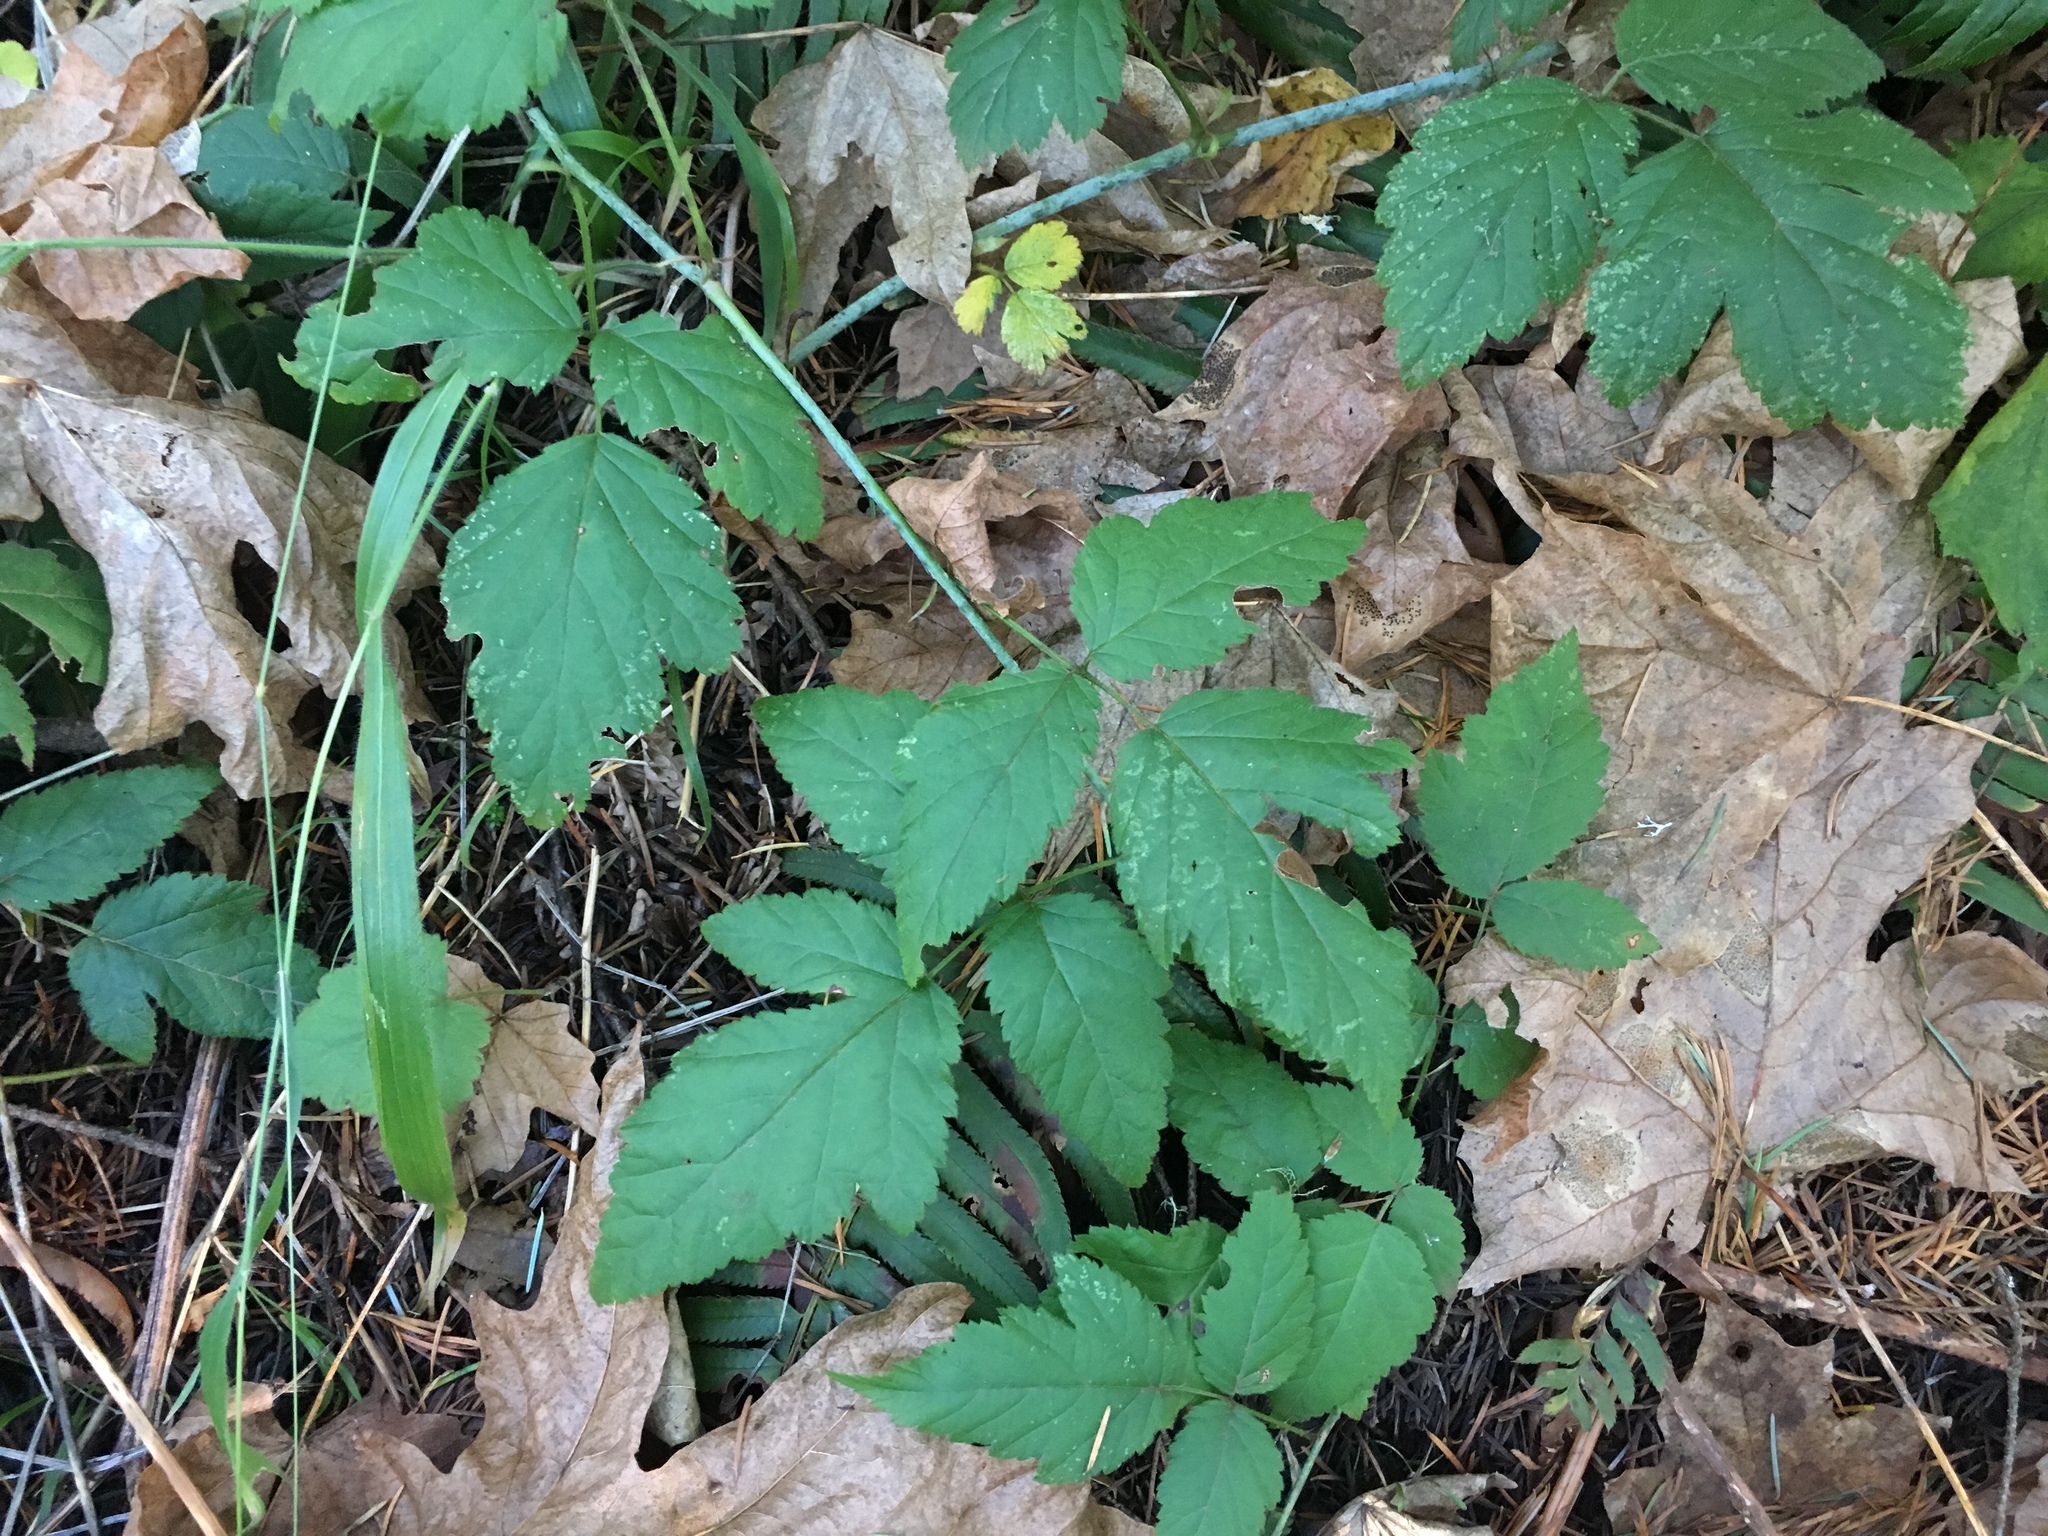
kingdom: Plantae
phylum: Tracheophyta
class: Magnoliopsida
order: Rosales
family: Rosaceae
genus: Rubus
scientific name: Rubus ursinus
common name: Pacific blackberry
